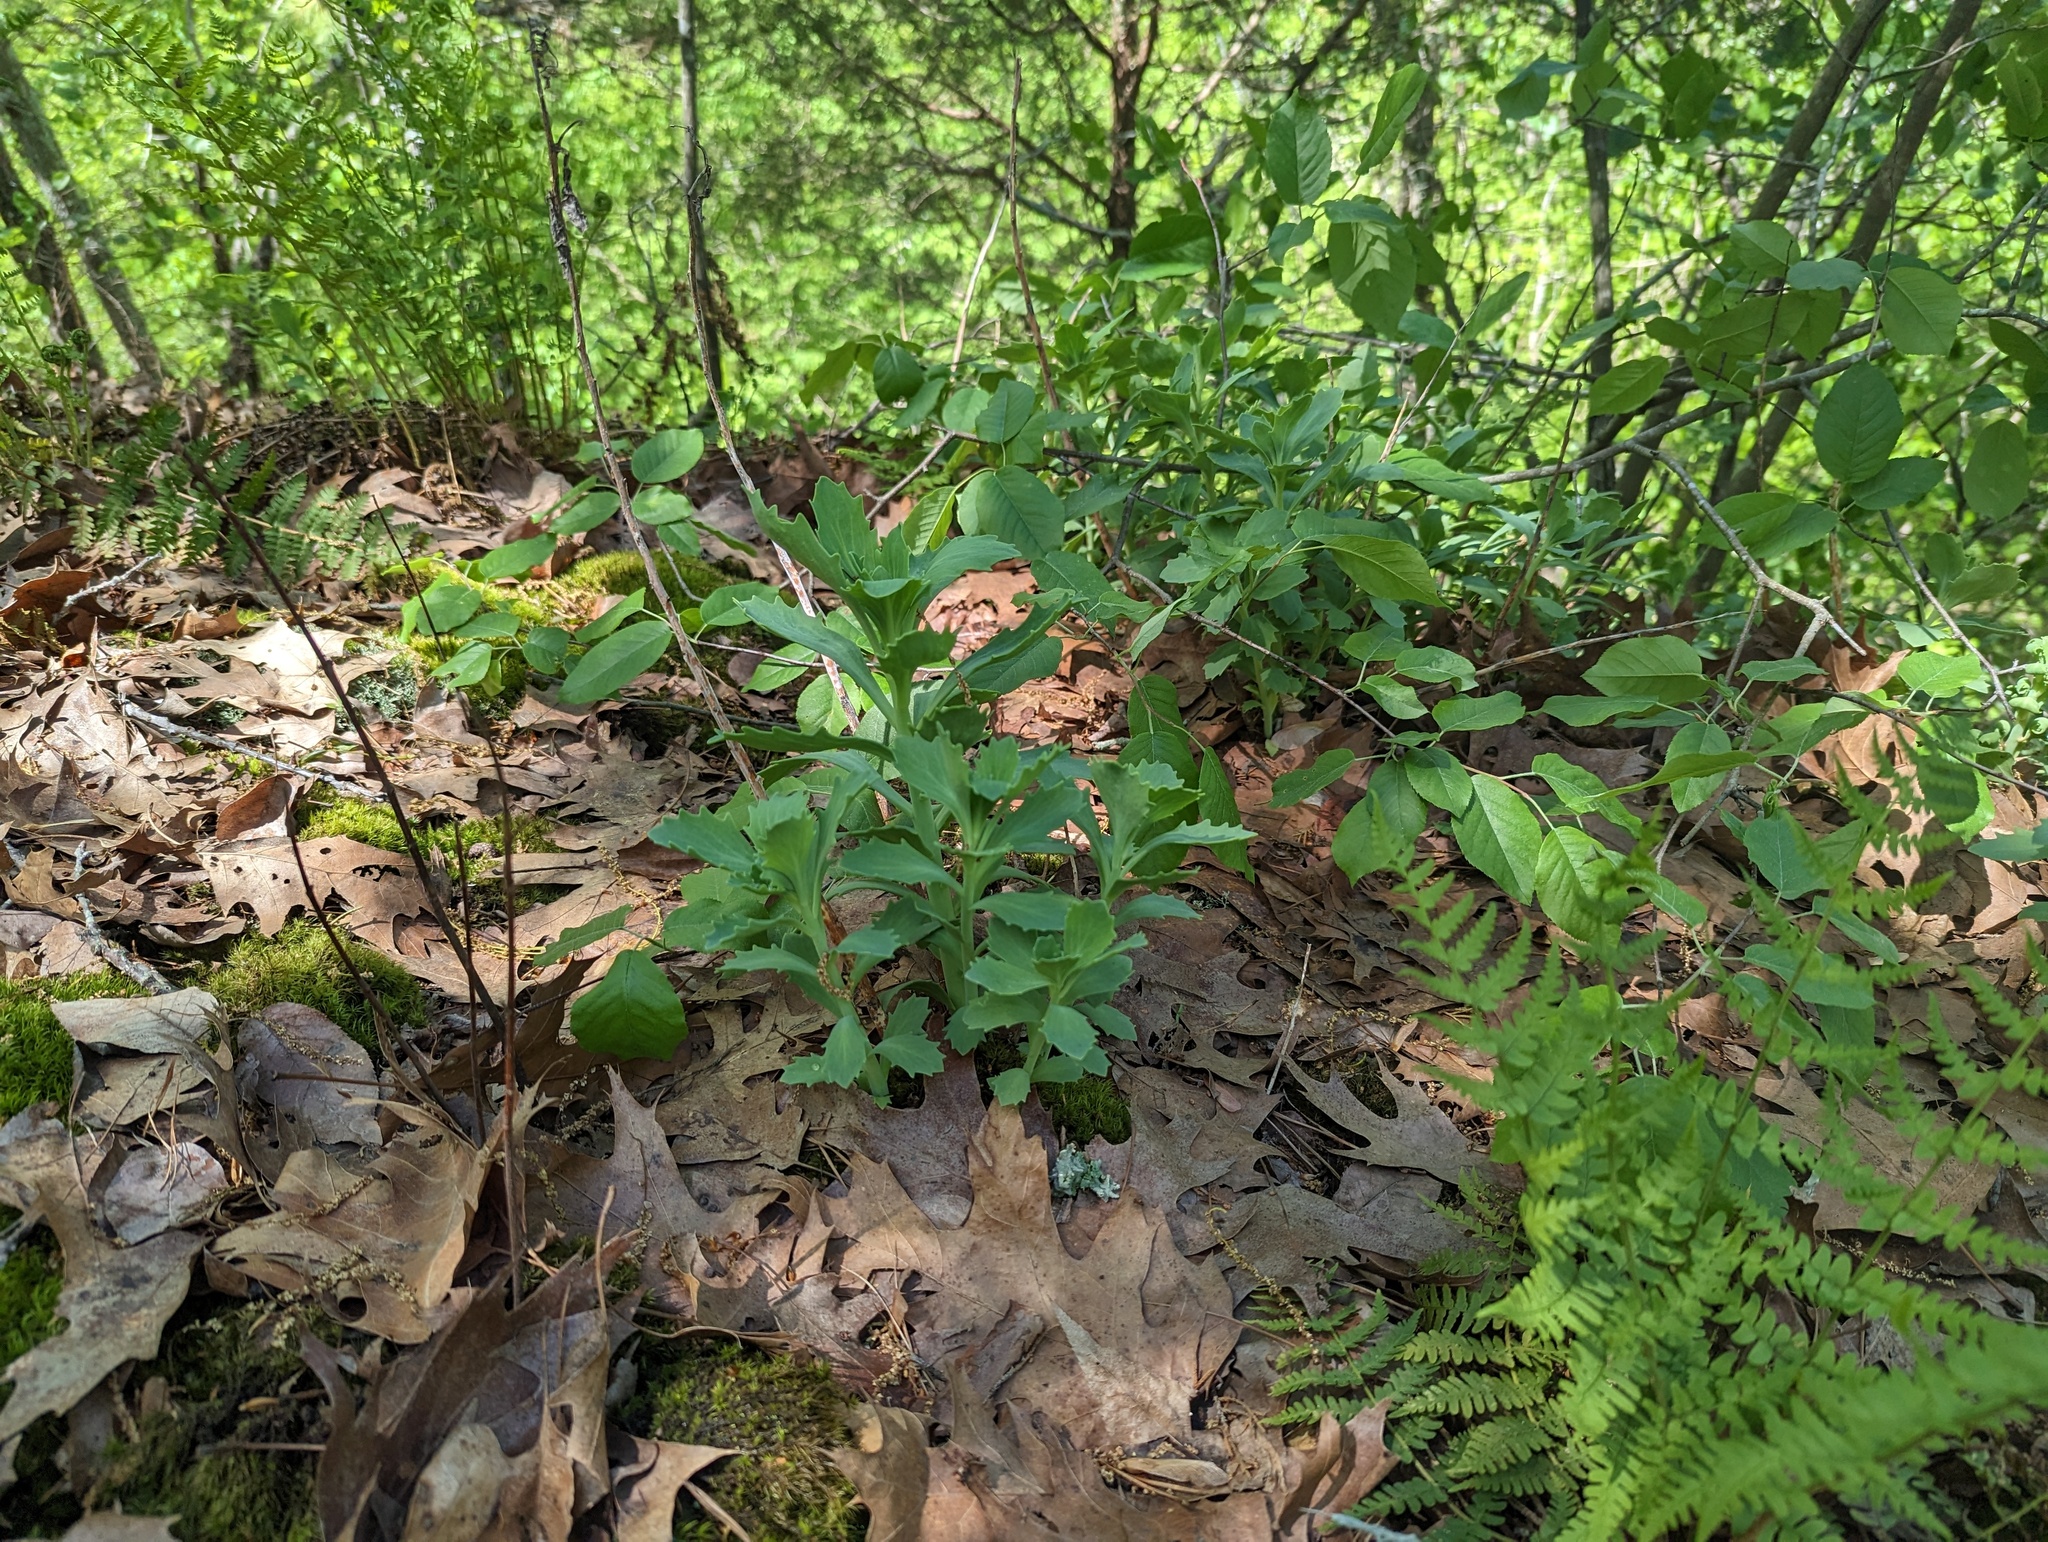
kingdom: Plantae
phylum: Tracheophyta
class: Magnoliopsida
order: Saxifragales
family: Crassulaceae
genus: Hylotelephium
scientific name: Hylotelephium telephioides
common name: Allegheny stonecrop
